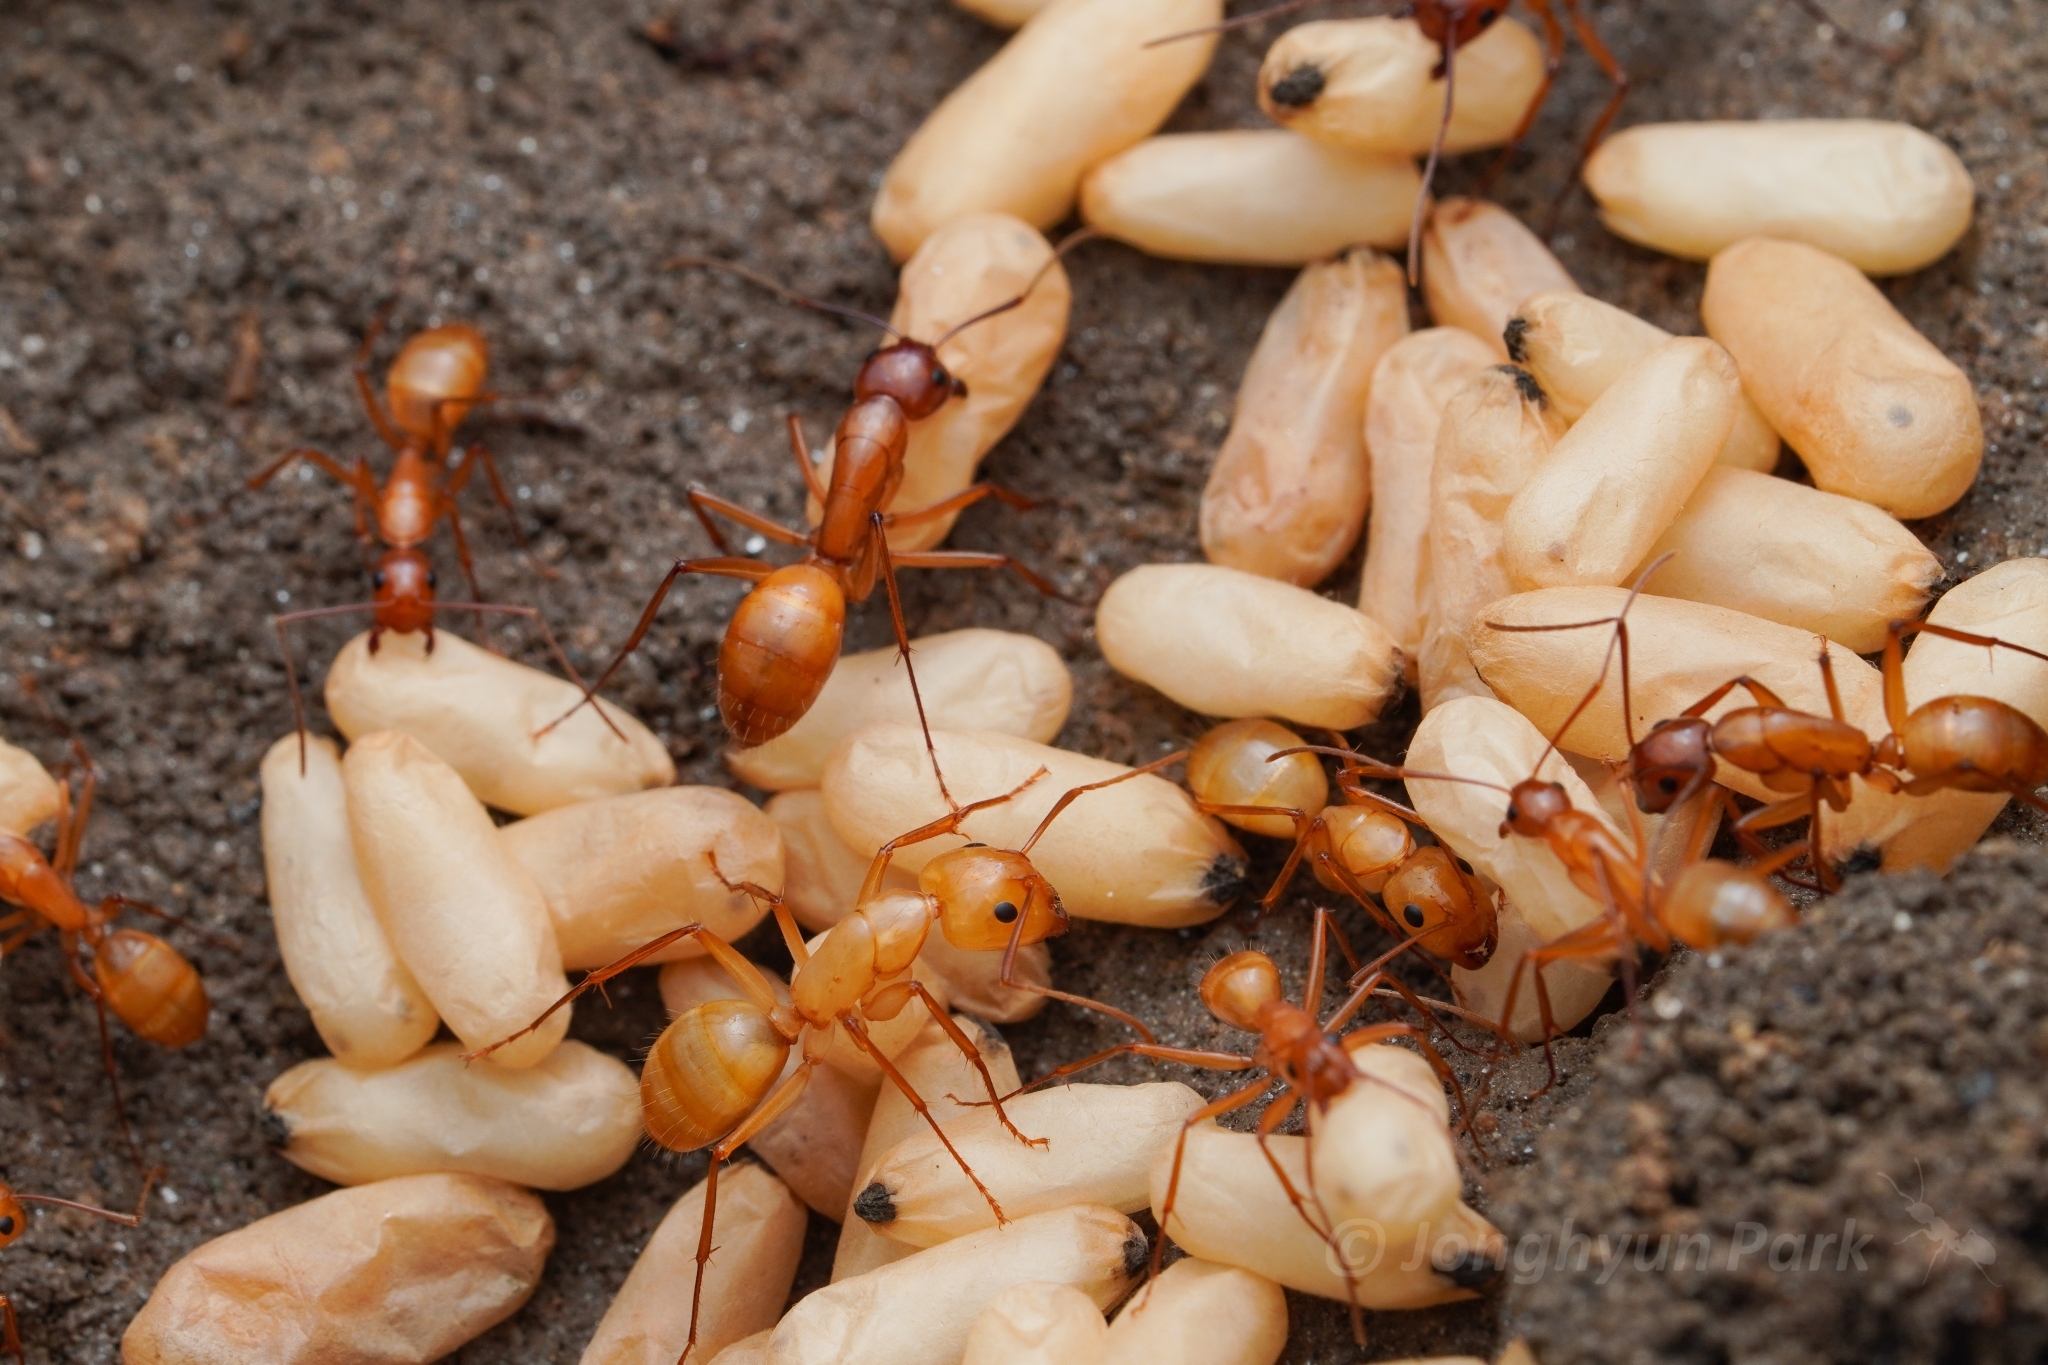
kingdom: Animalia
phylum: Arthropoda
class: Insecta
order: Hymenoptera
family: Formicidae
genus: Camponotus
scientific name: Camponotus castaneus
